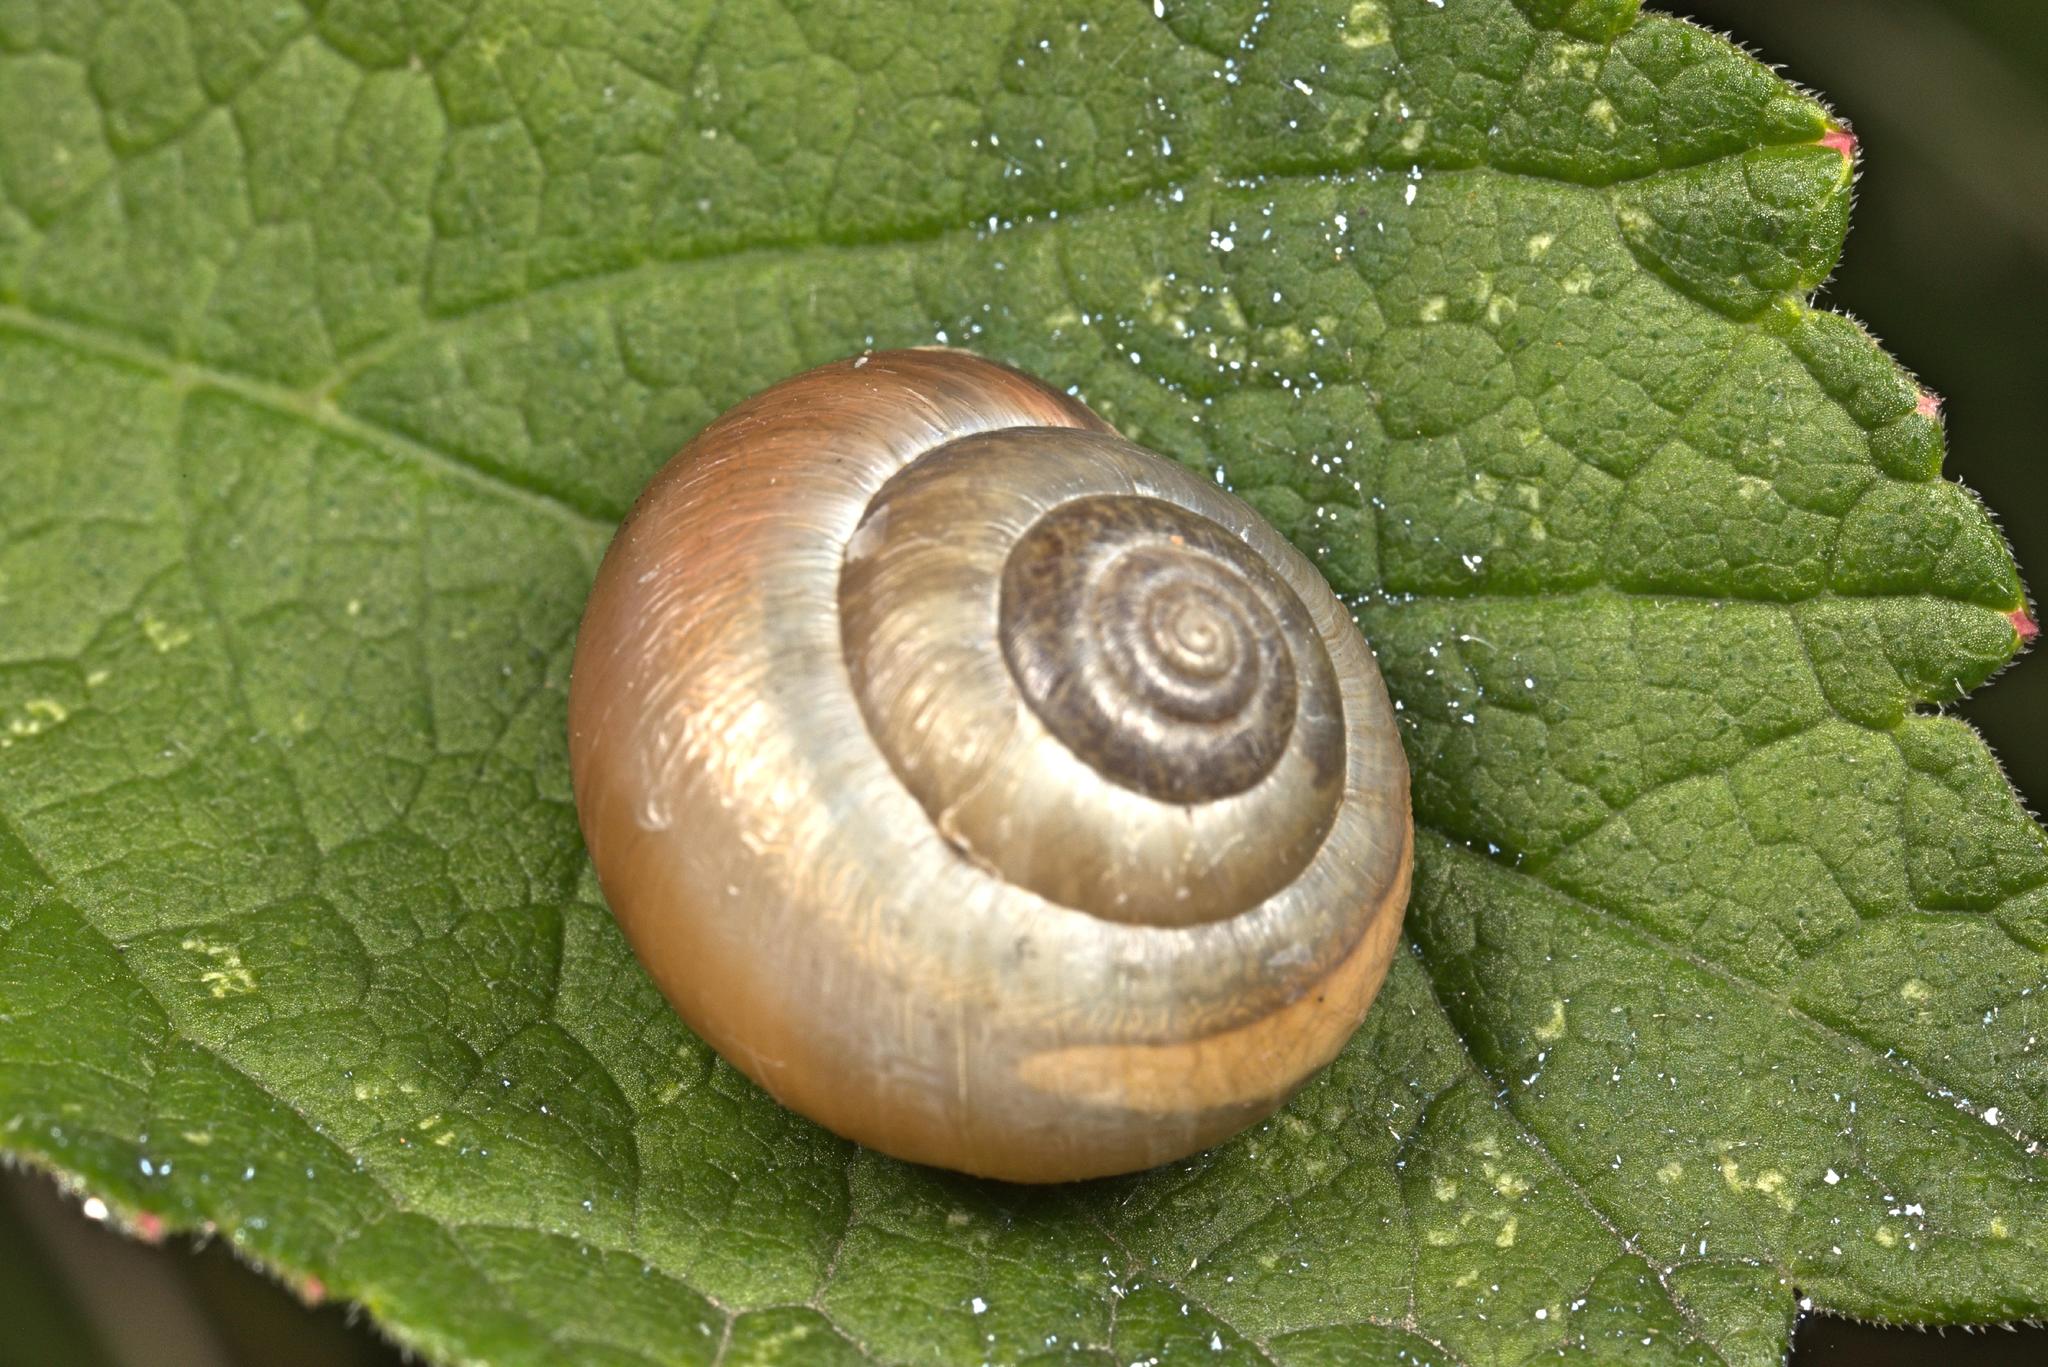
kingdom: Animalia
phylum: Mollusca
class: Gastropoda
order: Stylommatophora
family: Hygromiidae
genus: Monacha
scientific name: Monacha cantiana
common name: Kentish snail
